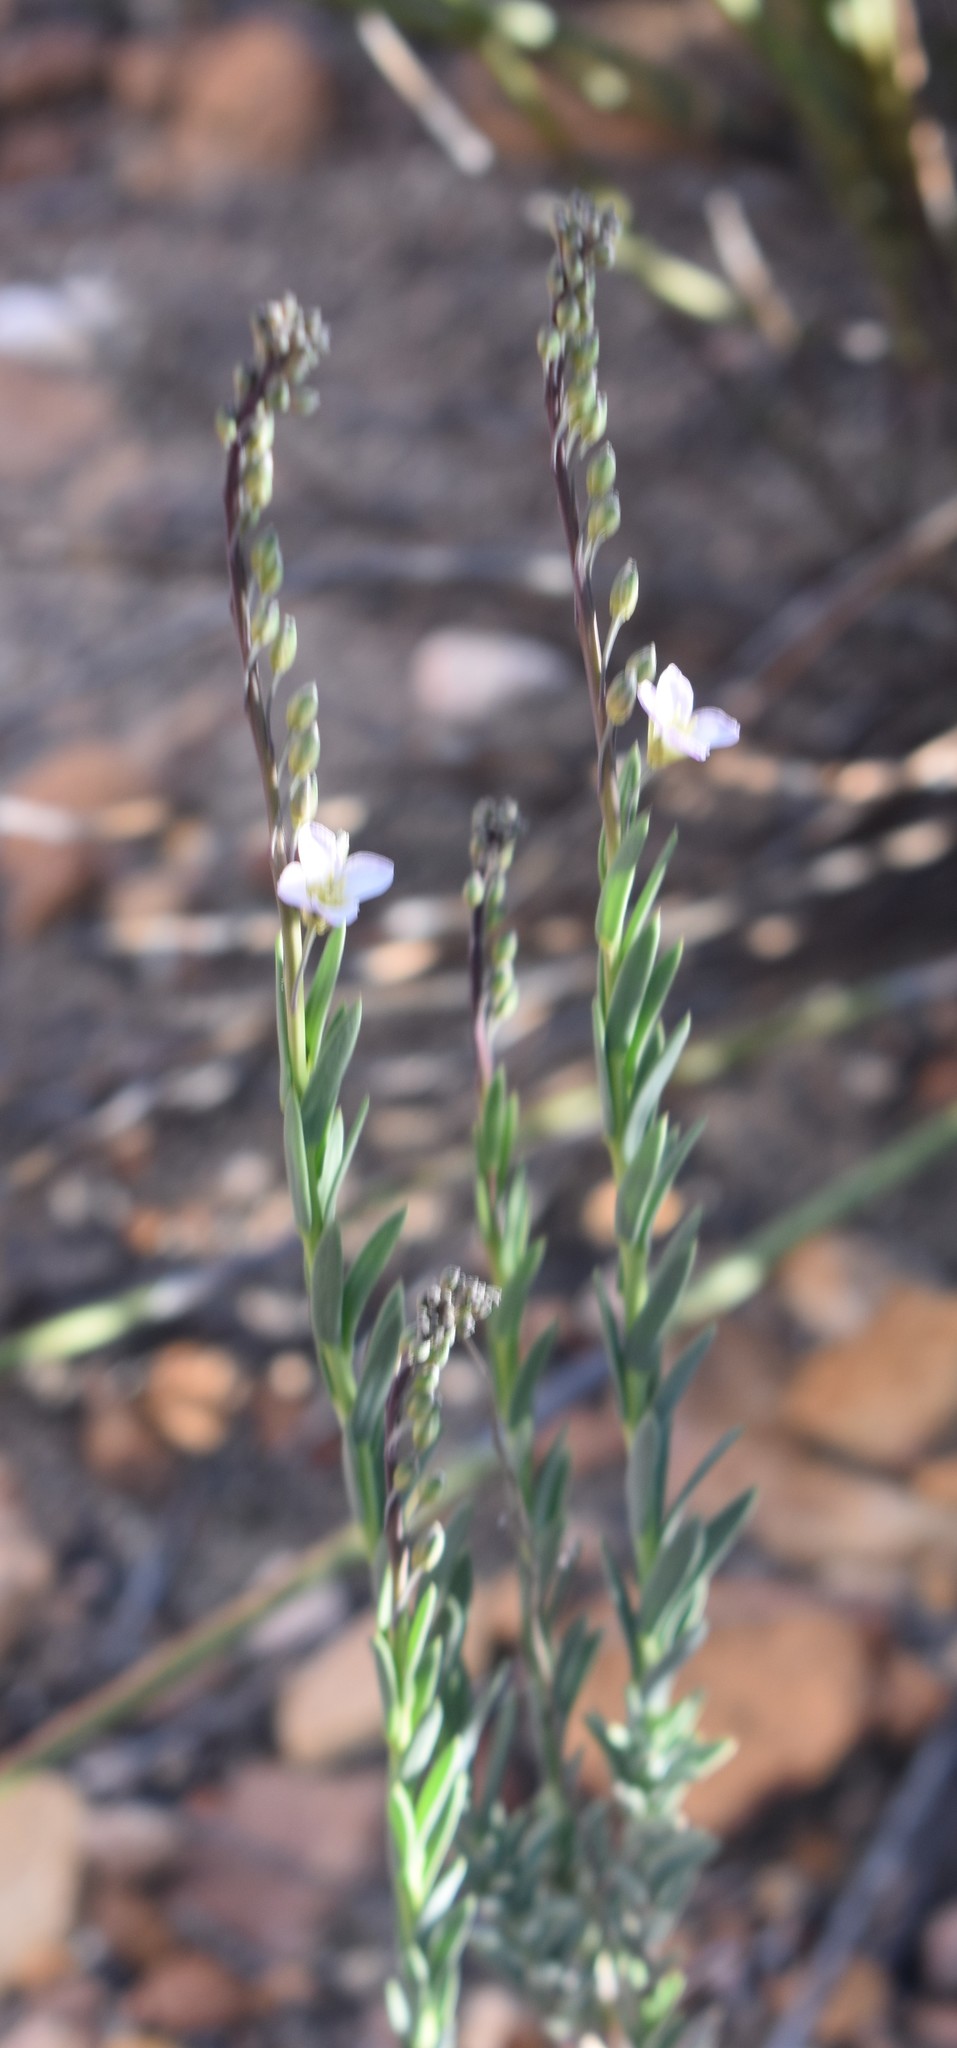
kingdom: Plantae
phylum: Tracheophyta
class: Magnoliopsida
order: Brassicales
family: Brassicaceae
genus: Heliophila
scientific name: Heliophila glauca
